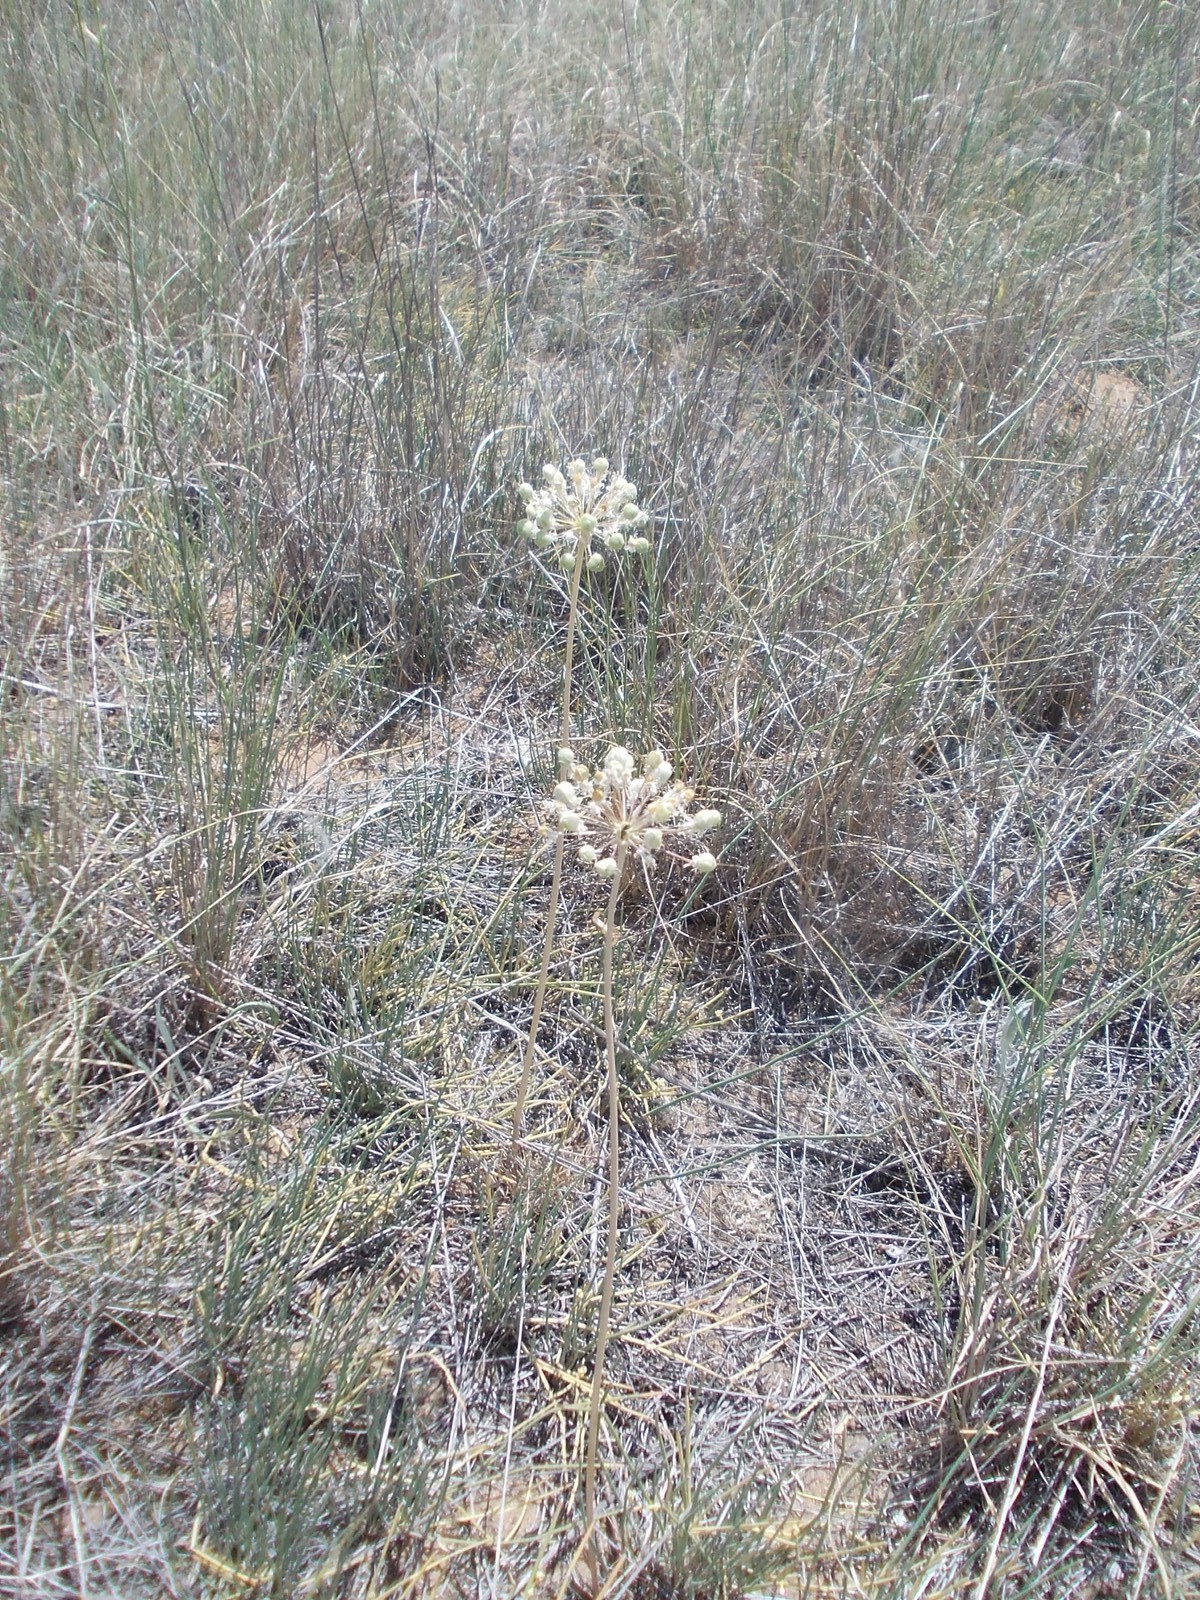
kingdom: Plantae
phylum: Tracheophyta
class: Liliopsida
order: Asparagales
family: Amaryllidaceae
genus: Allium
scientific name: Allium tulipifolium
